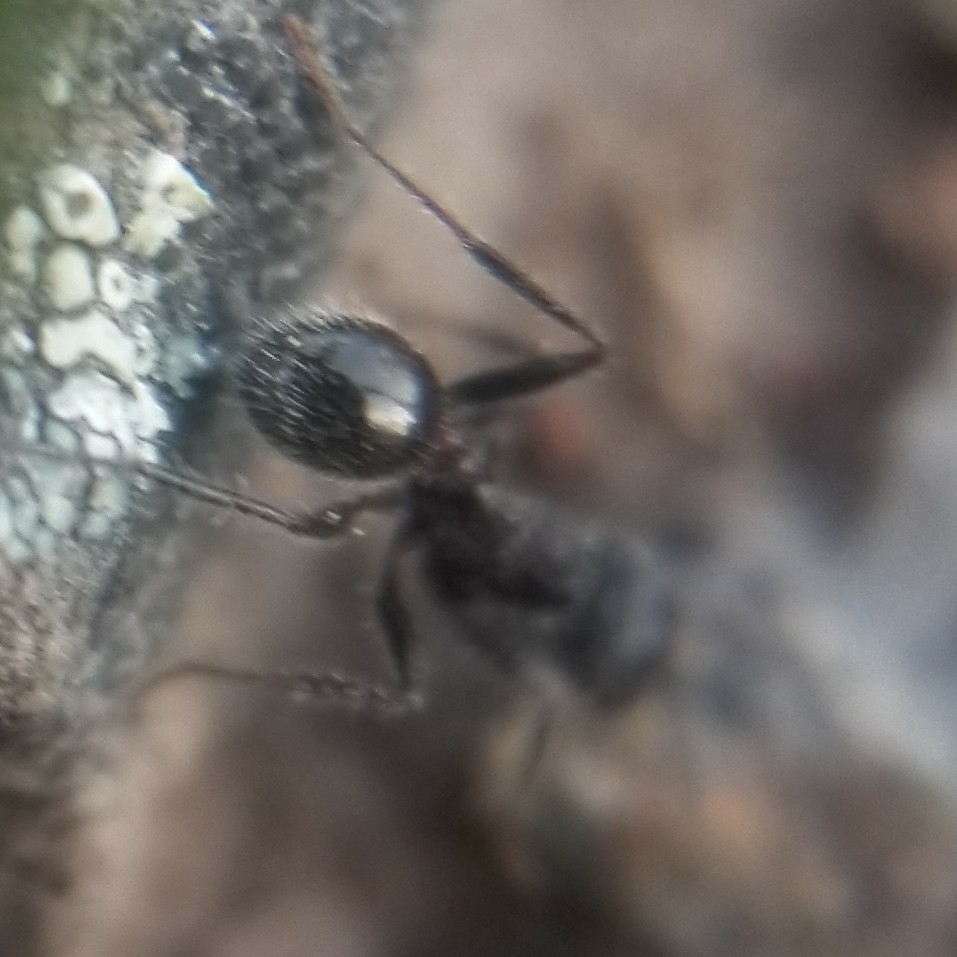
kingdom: Animalia
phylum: Arthropoda
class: Insecta
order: Hymenoptera
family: Formicidae
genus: Veromessor
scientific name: Veromessor andrei
